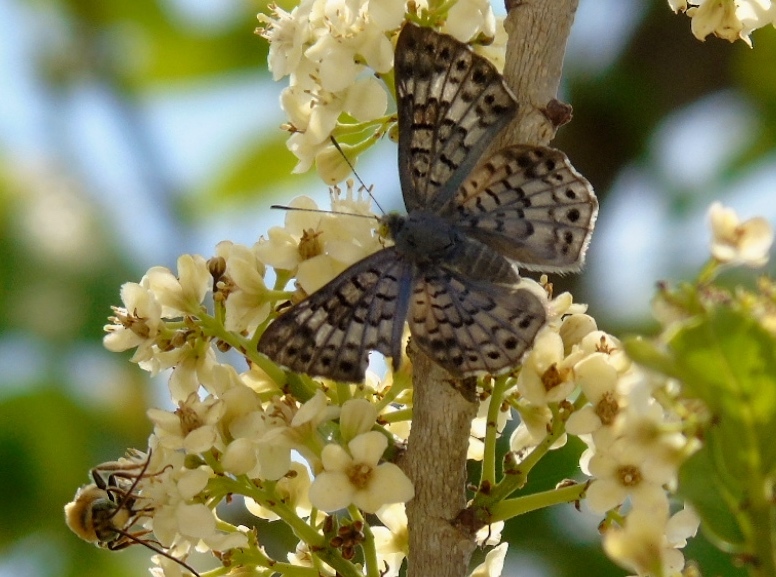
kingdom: Animalia
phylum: Arthropoda
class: Insecta
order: Lepidoptera
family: Riodinidae
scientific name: Riodinidae
